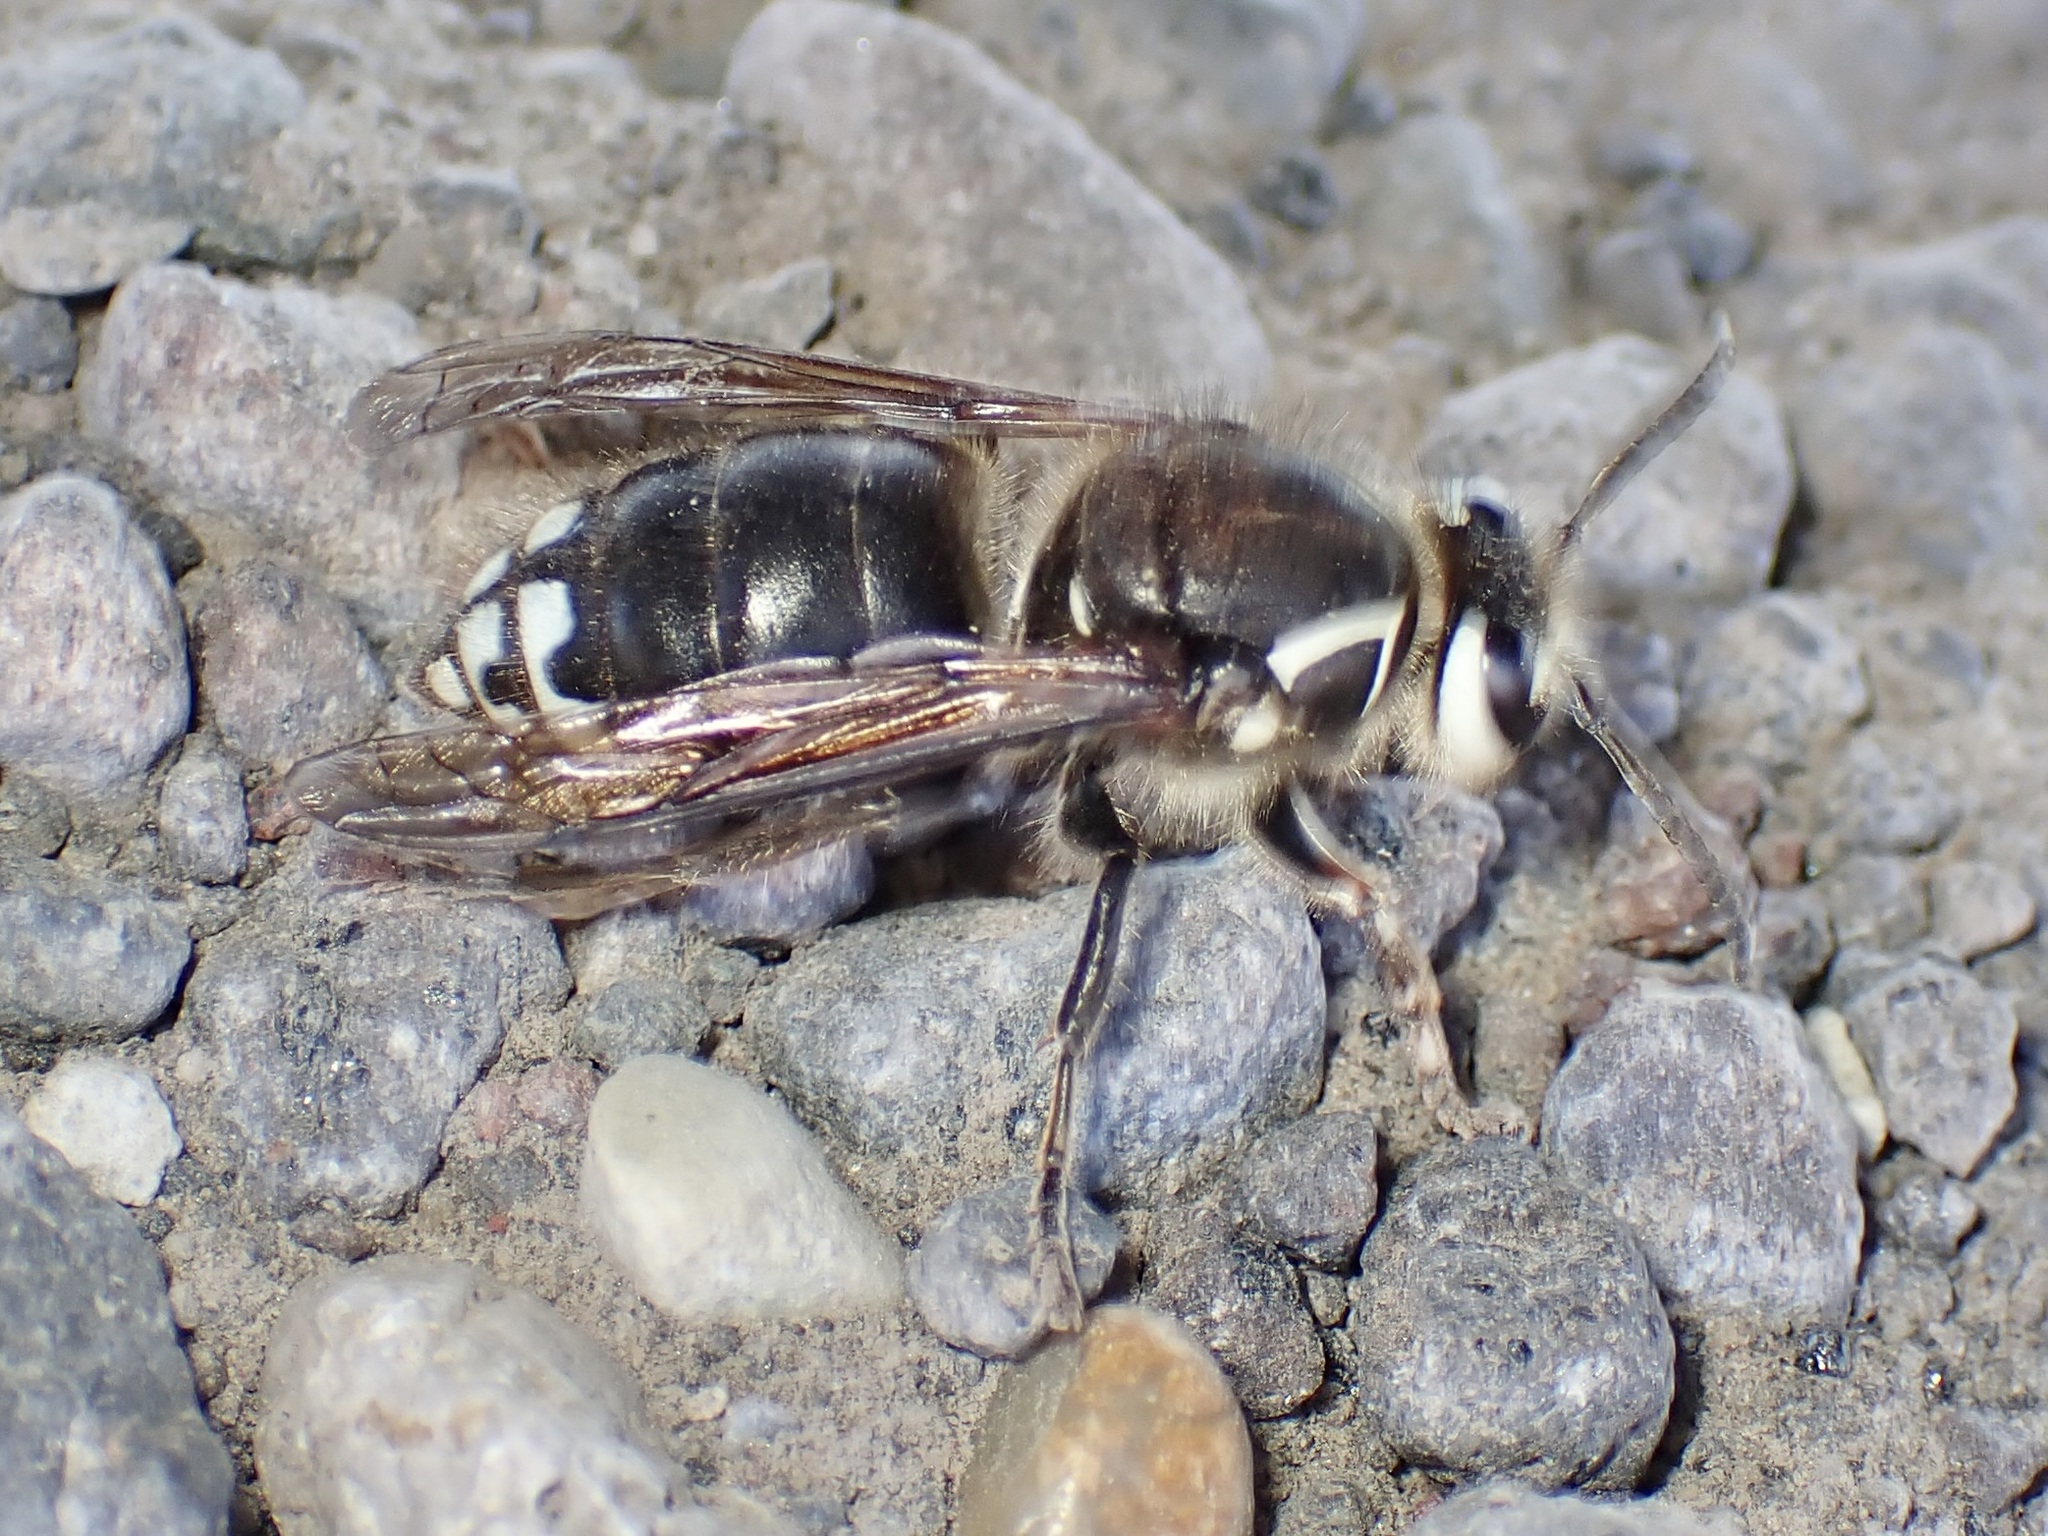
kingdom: Animalia
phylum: Arthropoda
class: Insecta
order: Hymenoptera
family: Vespidae
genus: Dolichovespula
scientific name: Dolichovespula maculata
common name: Bald-faced hornet
